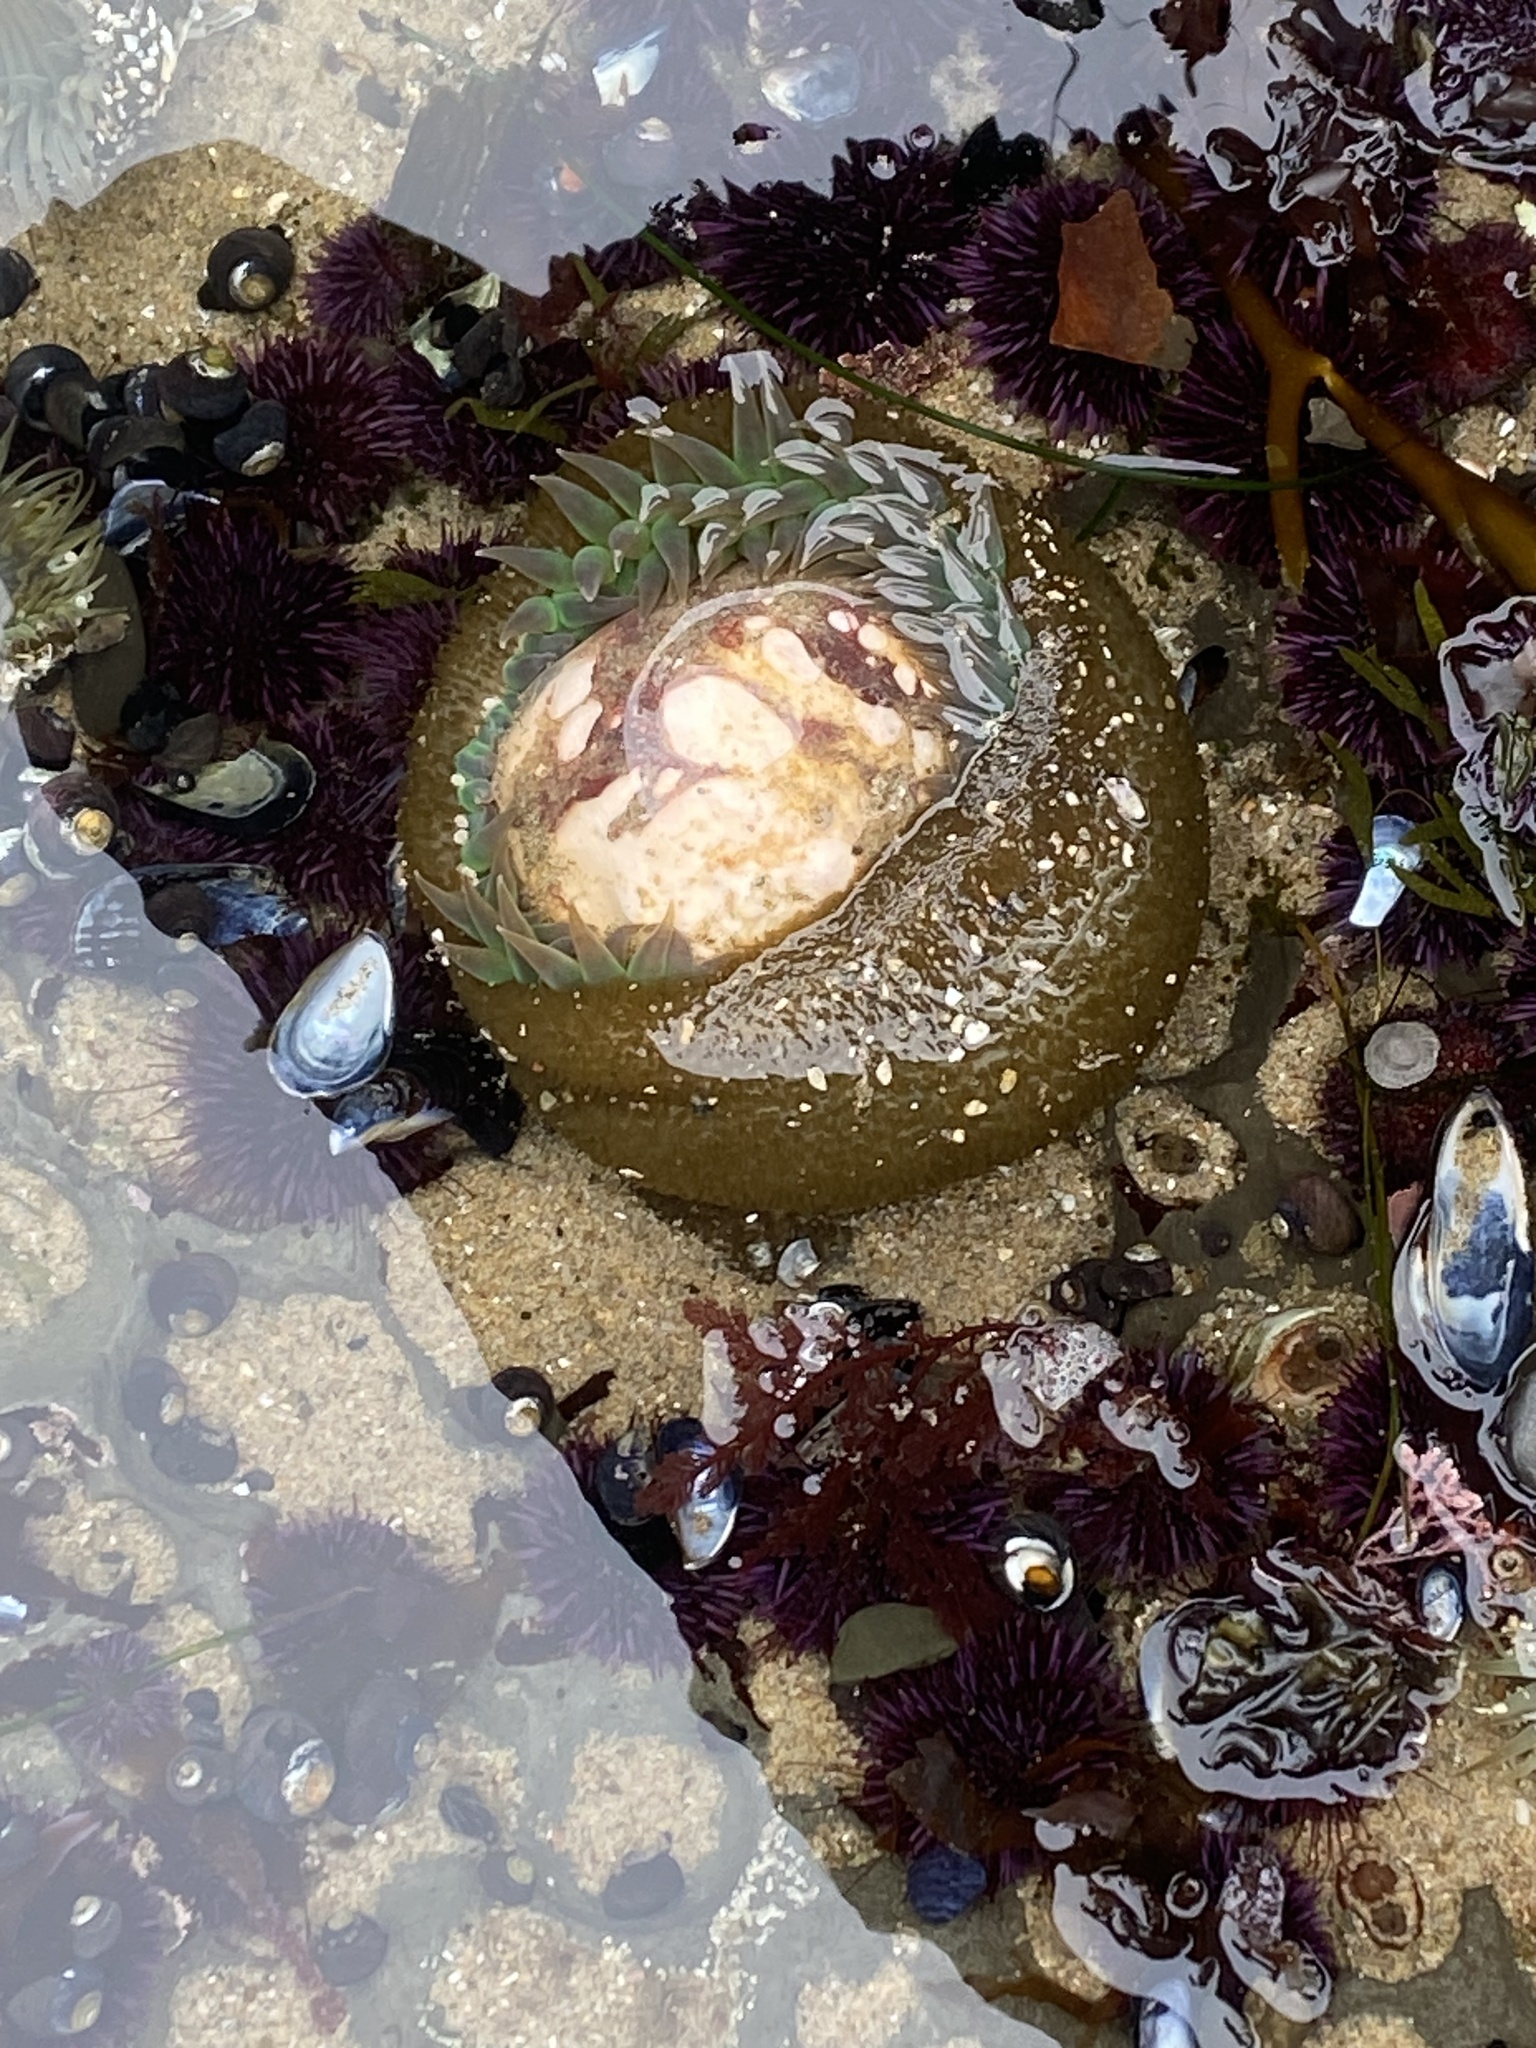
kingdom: Animalia
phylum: Cnidaria
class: Anthozoa
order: Actiniaria
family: Actiniidae
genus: Anthopleura
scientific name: Anthopleura xanthogrammica
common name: Giant green anemone
